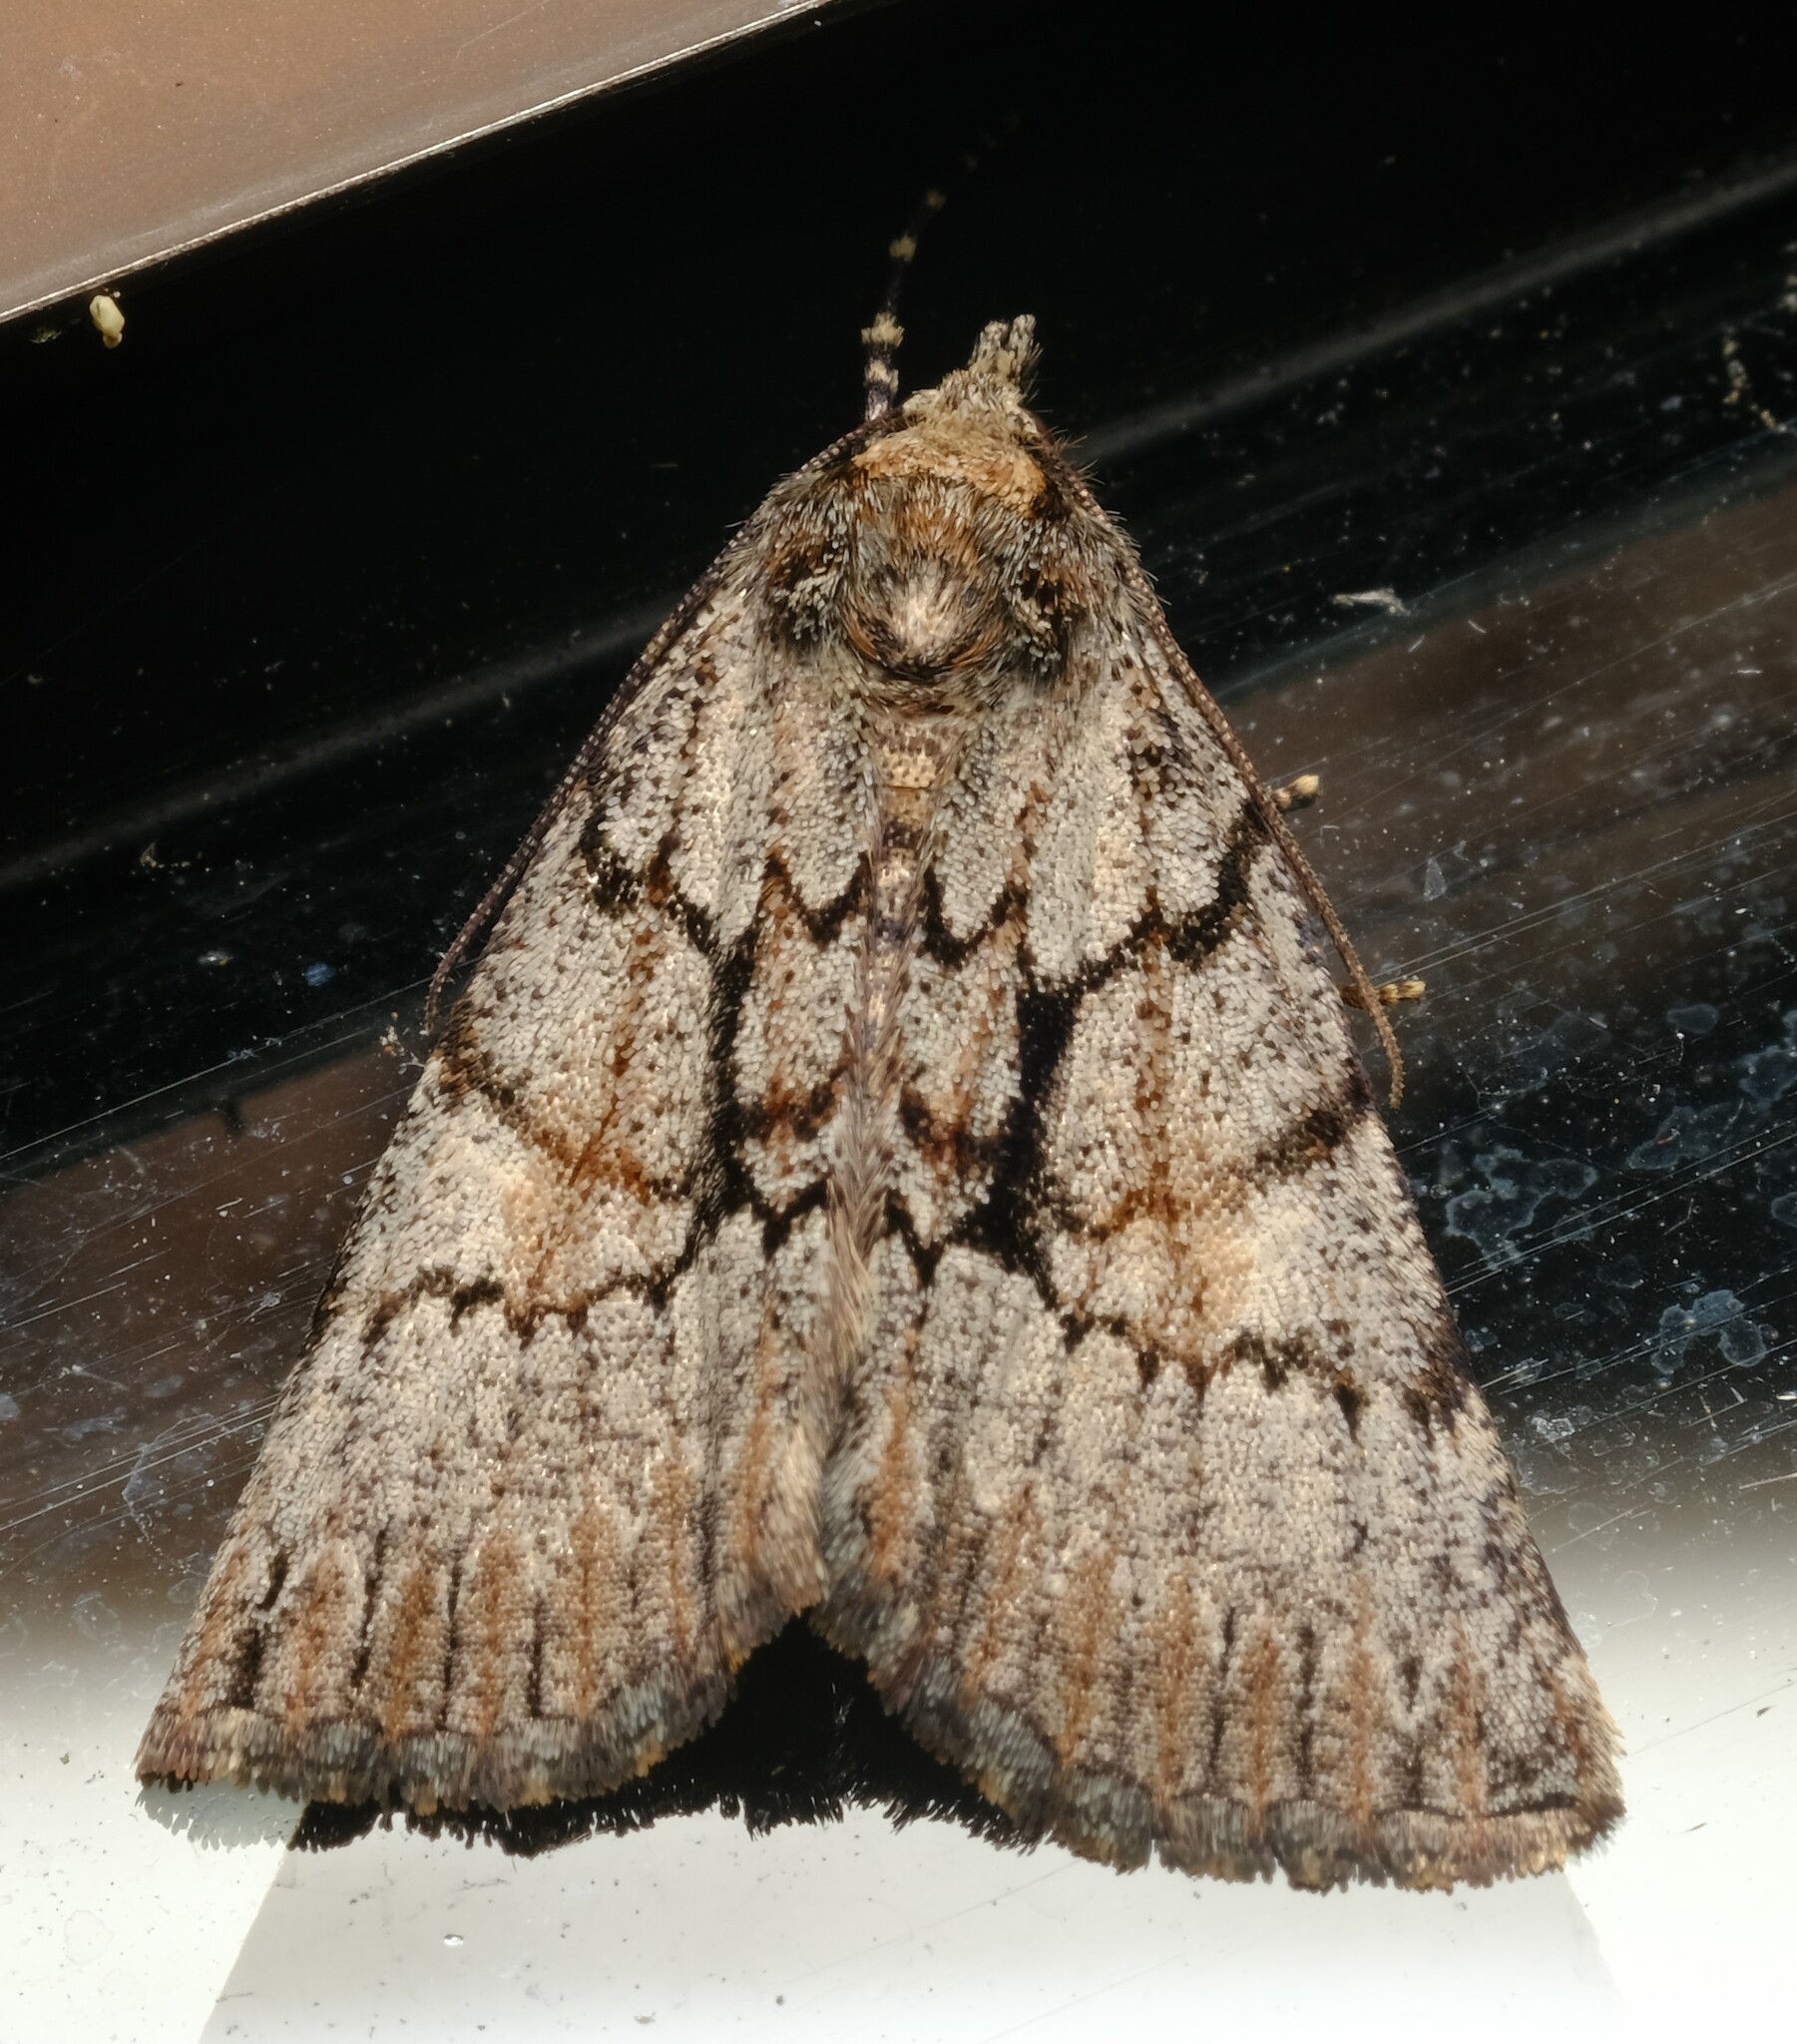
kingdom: Animalia
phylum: Arthropoda
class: Insecta
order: Lepidoptera
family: Geometridae
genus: Smyriodes
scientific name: Smyriodes
